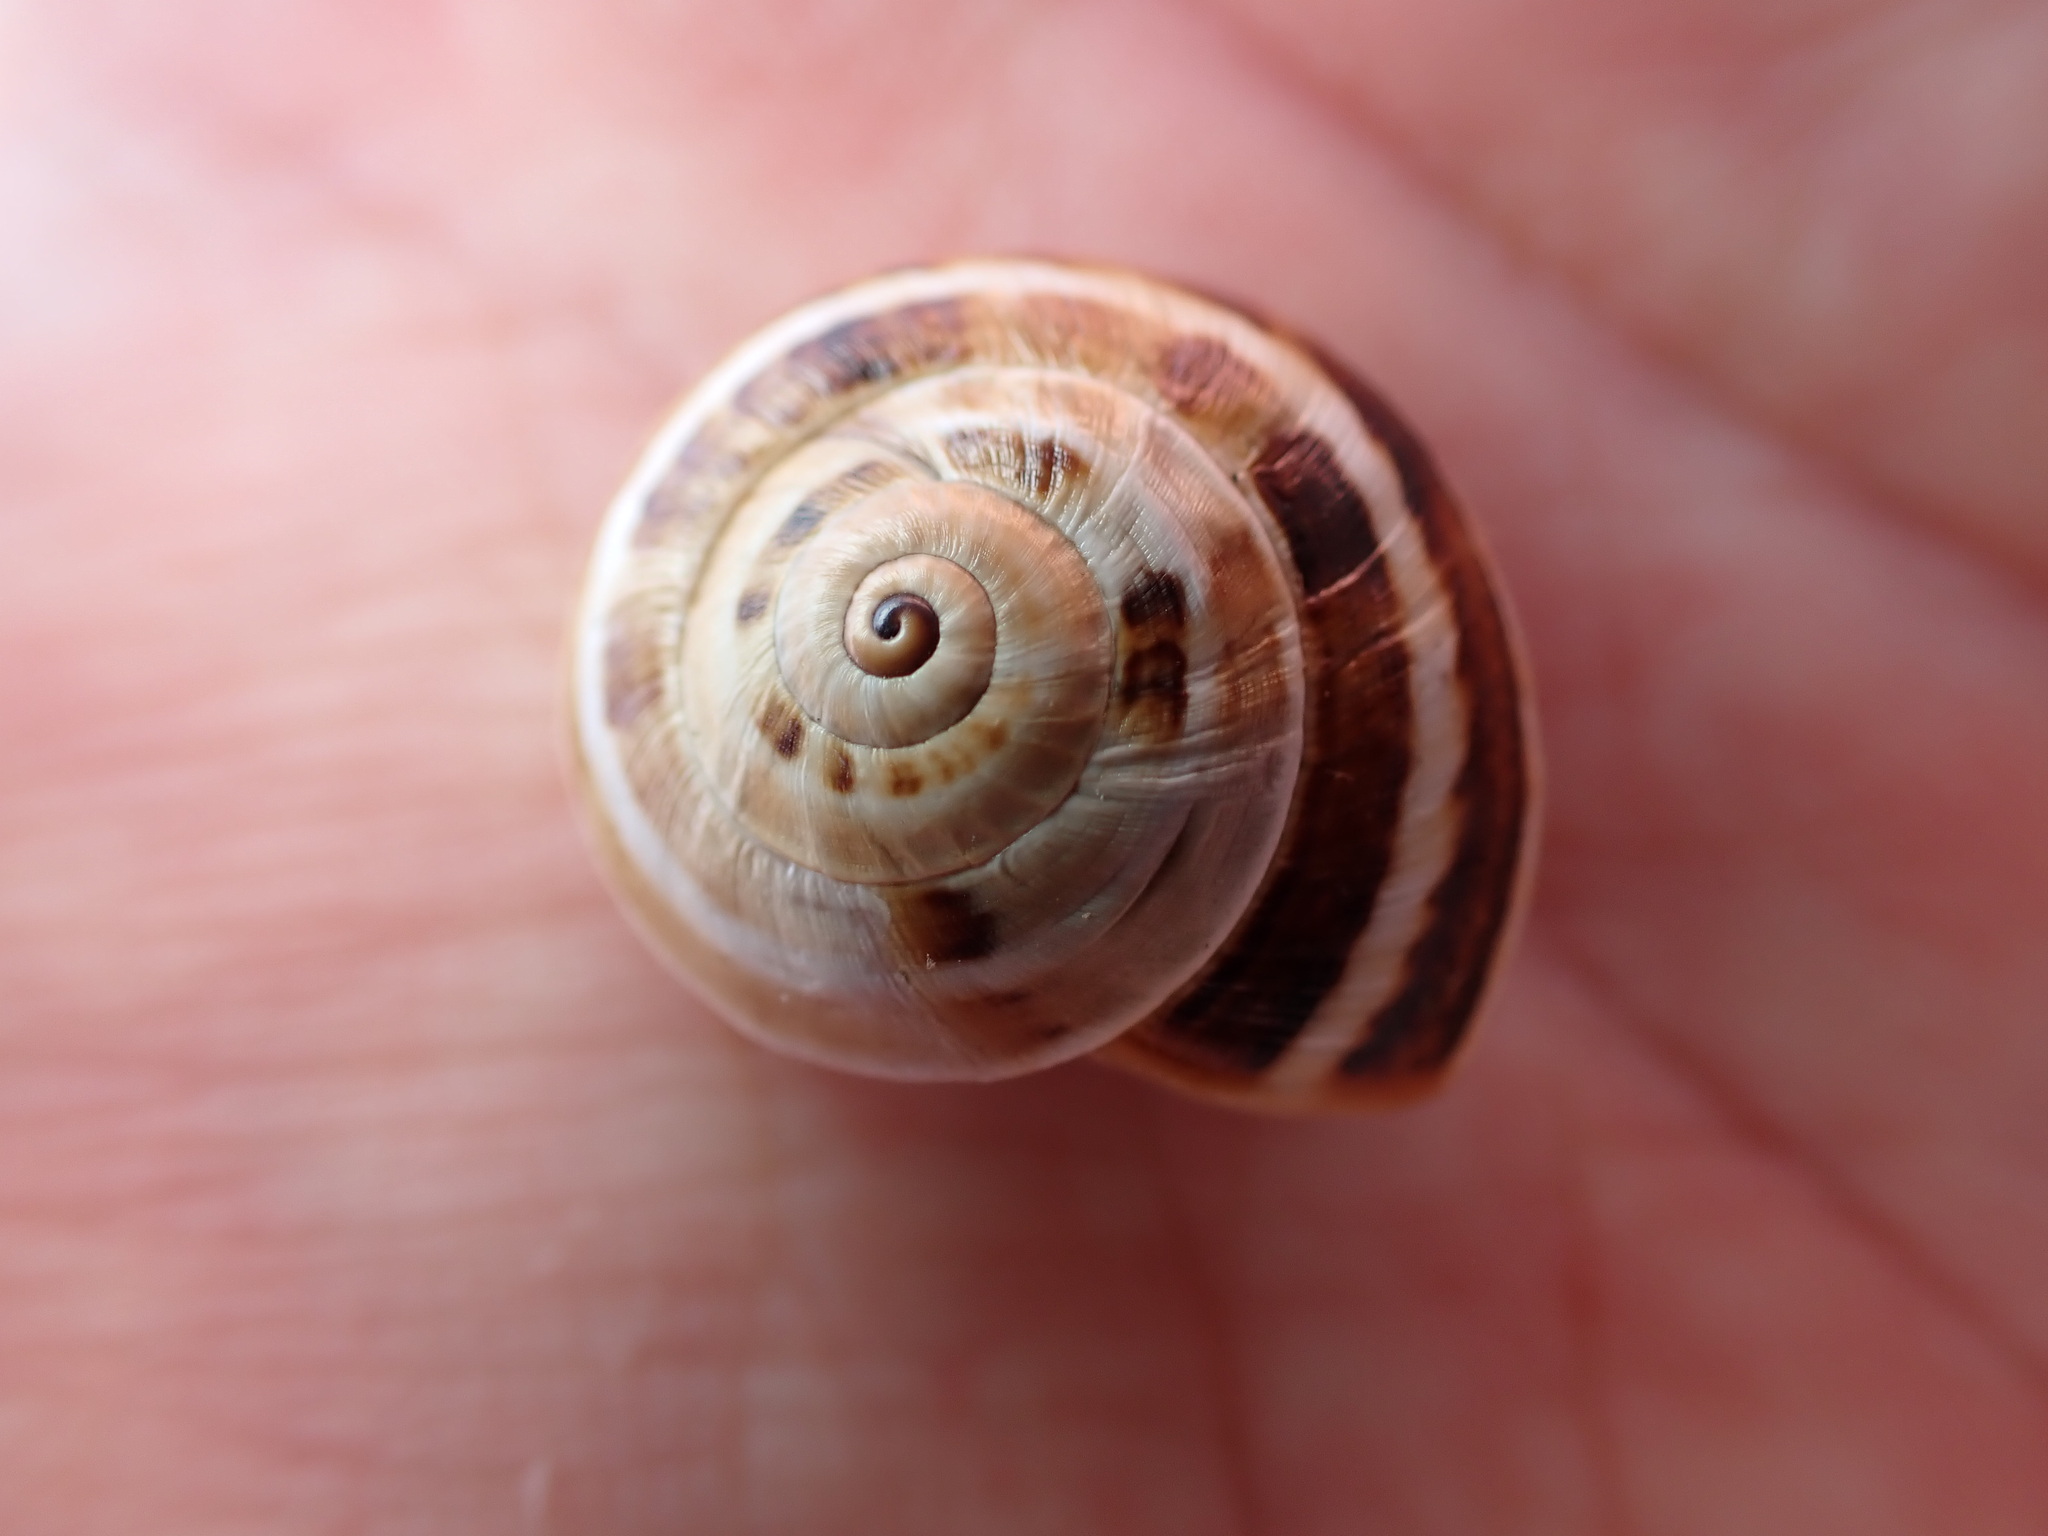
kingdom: Animalia
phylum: Mollusca
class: Gastropoda
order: Stylommatophora
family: Helicidae
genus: Theba
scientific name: Theba pisana
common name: White snail
